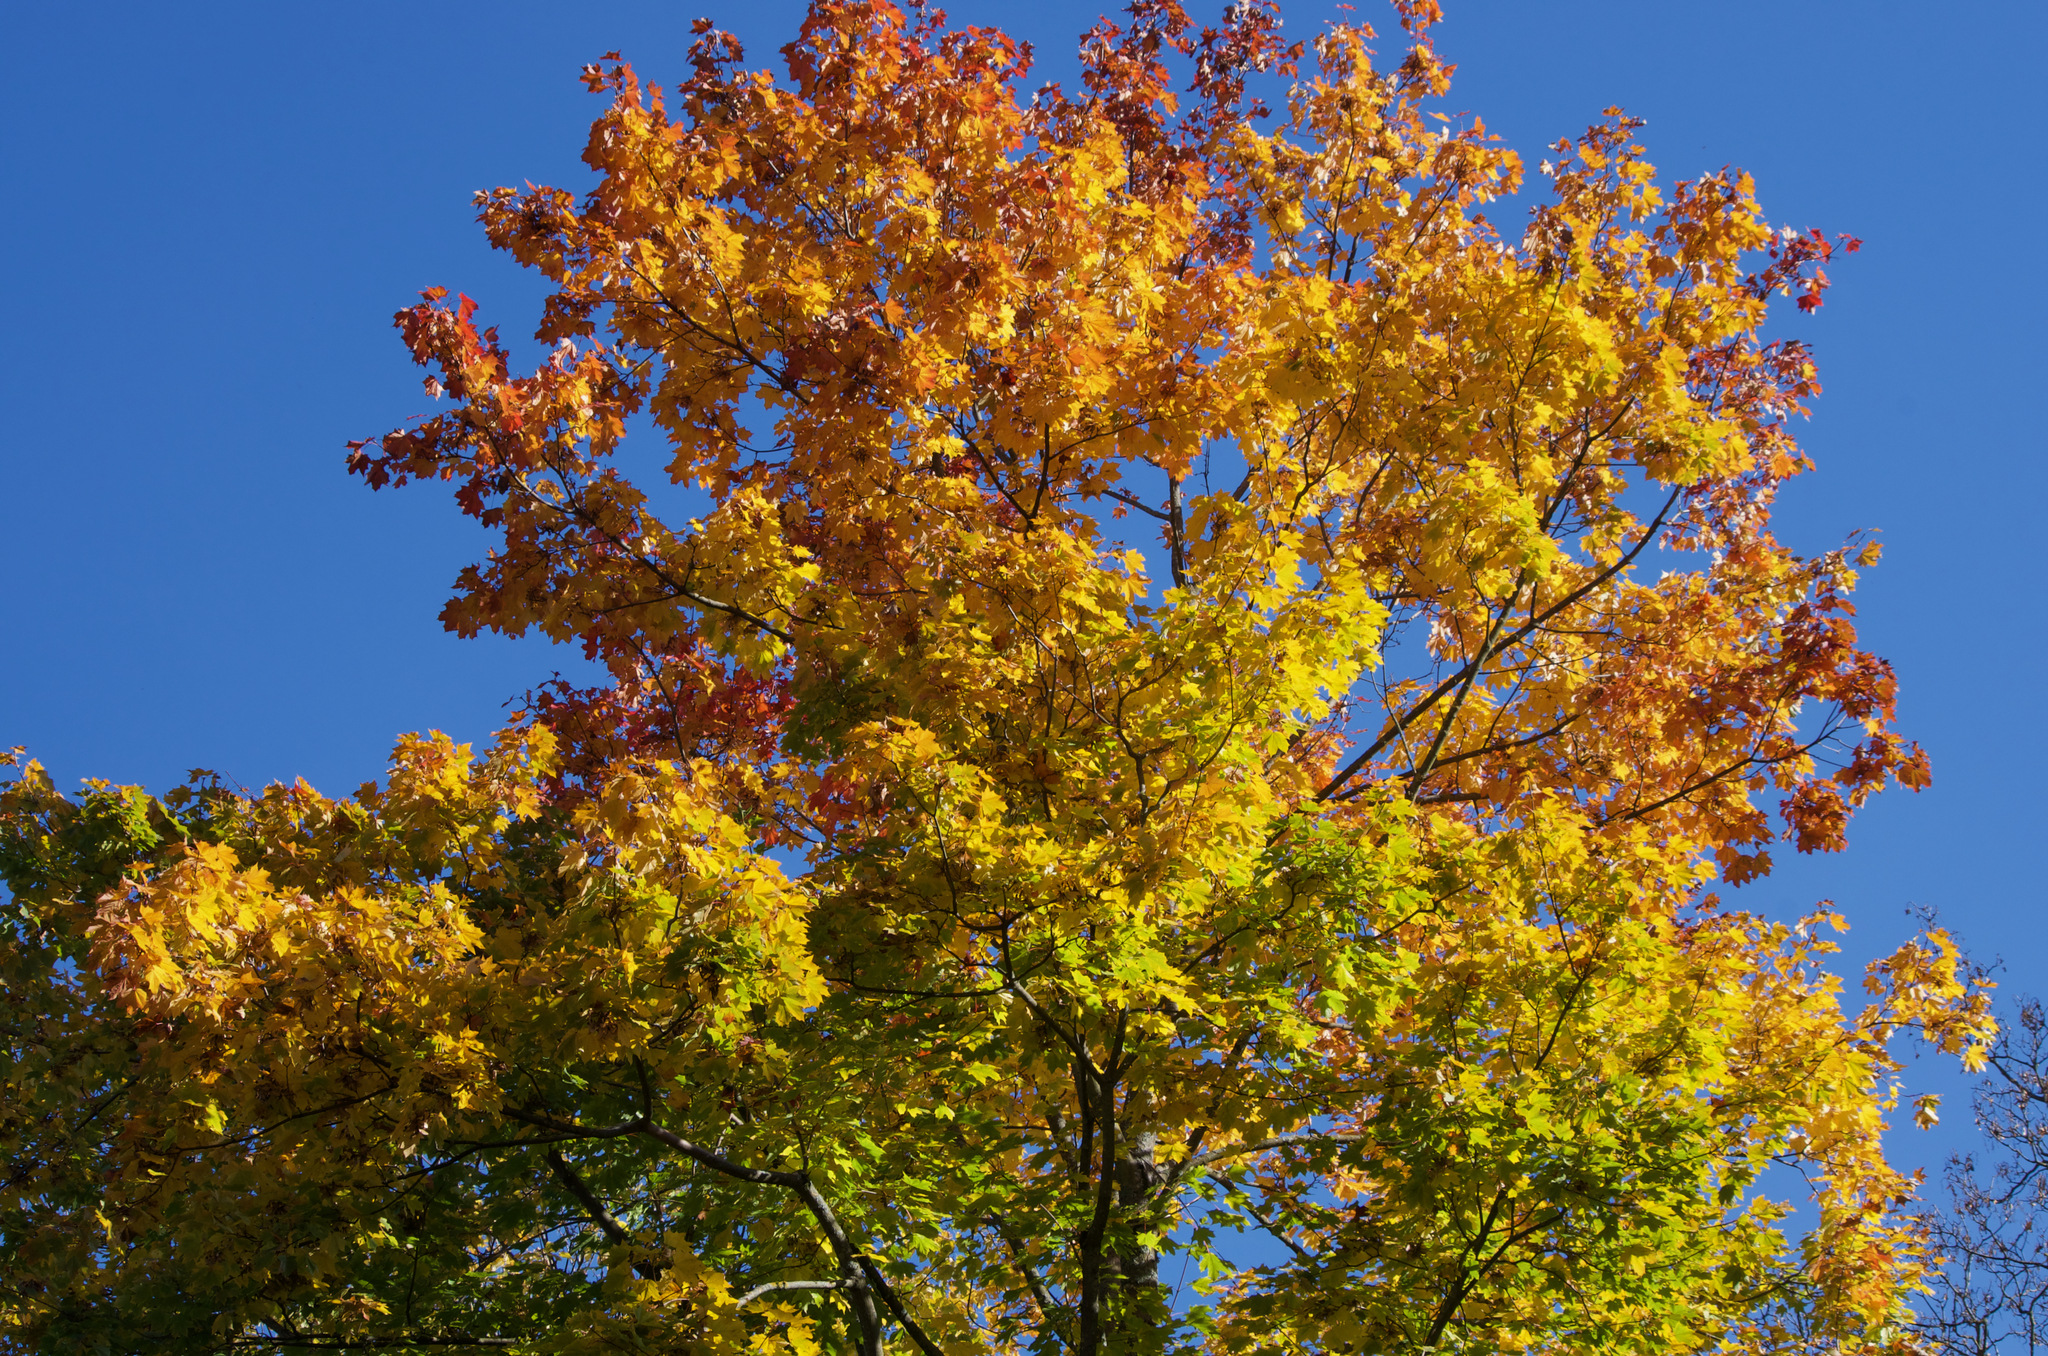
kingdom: Plantae
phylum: Tracheophyta
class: Magnoliopsida
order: Sapindales
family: Sapindaceae
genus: Acer
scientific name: Acer platanoides
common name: Norway maple
